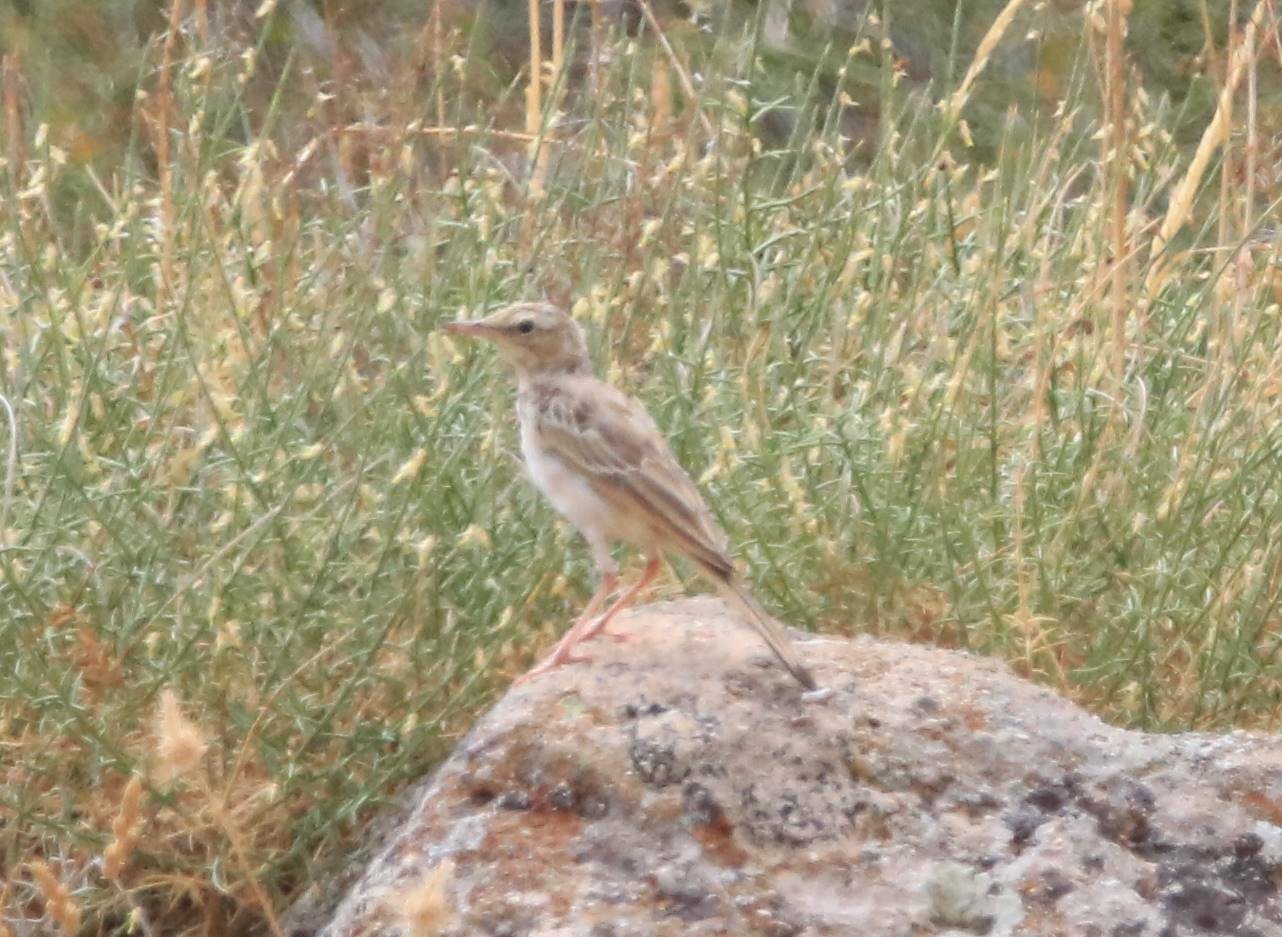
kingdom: Animalia
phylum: Chordata
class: Aves
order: Passeriformes
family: Motacillidae
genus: Anthus
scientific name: Anthus campestris
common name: Tawny pipit
